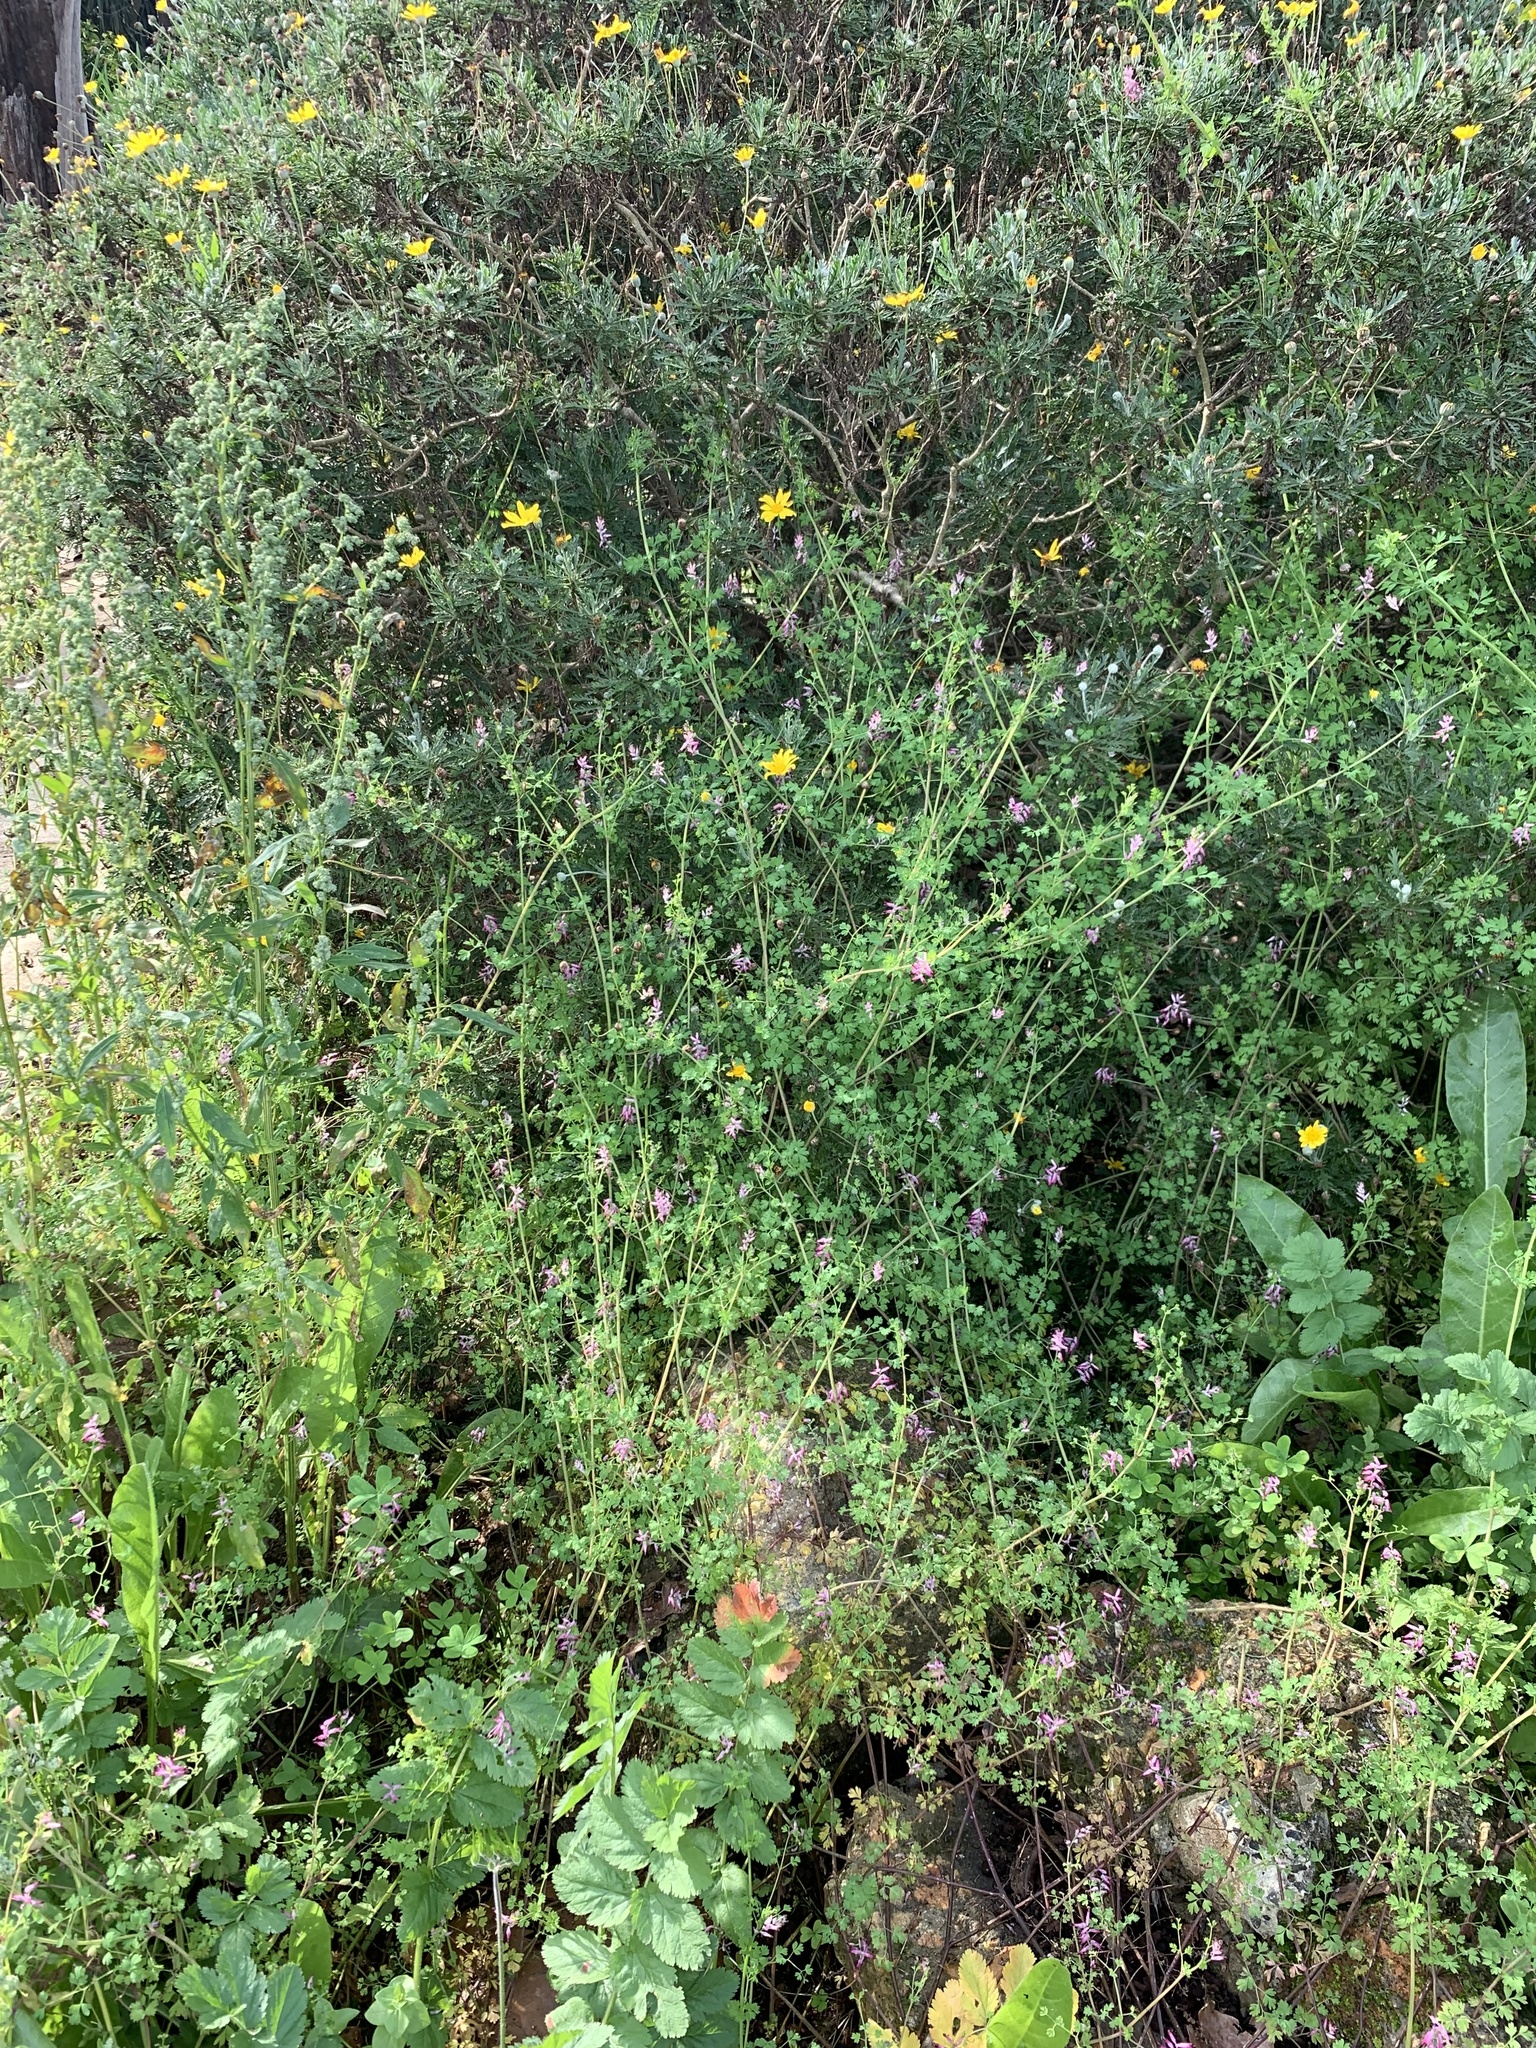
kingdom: Plantae
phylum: Tracheophyta
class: Magnoliopsida
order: Ranunculales
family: Papaveraceae
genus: Fumaria
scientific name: Fumaria muralis
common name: Common ramping-fumitory
